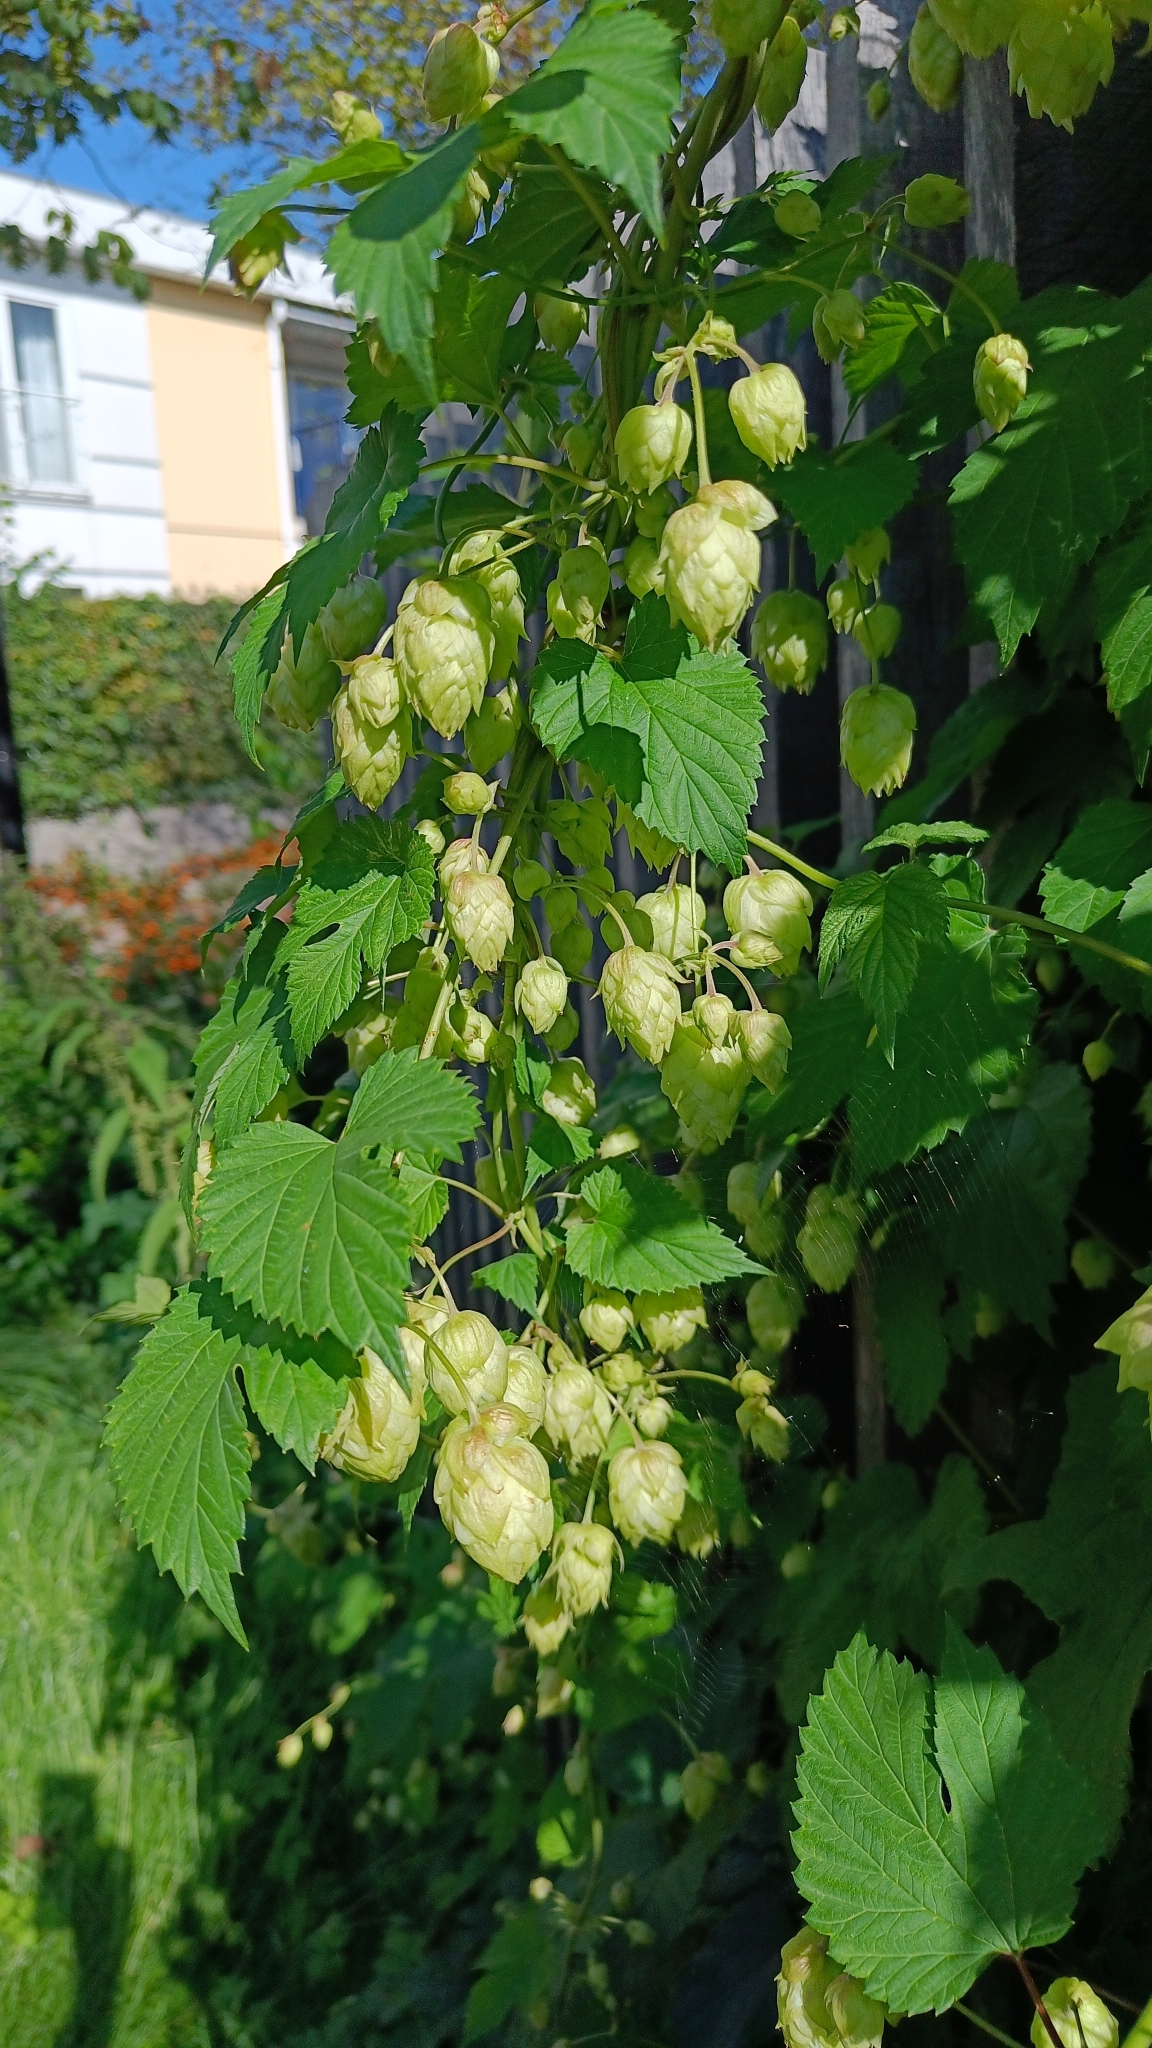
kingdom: Plantae
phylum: Tracheophyta
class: Magnoliopsida
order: Rosales
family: Cannabaceae
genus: Humulus
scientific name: Humulus lupulus
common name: Hop
